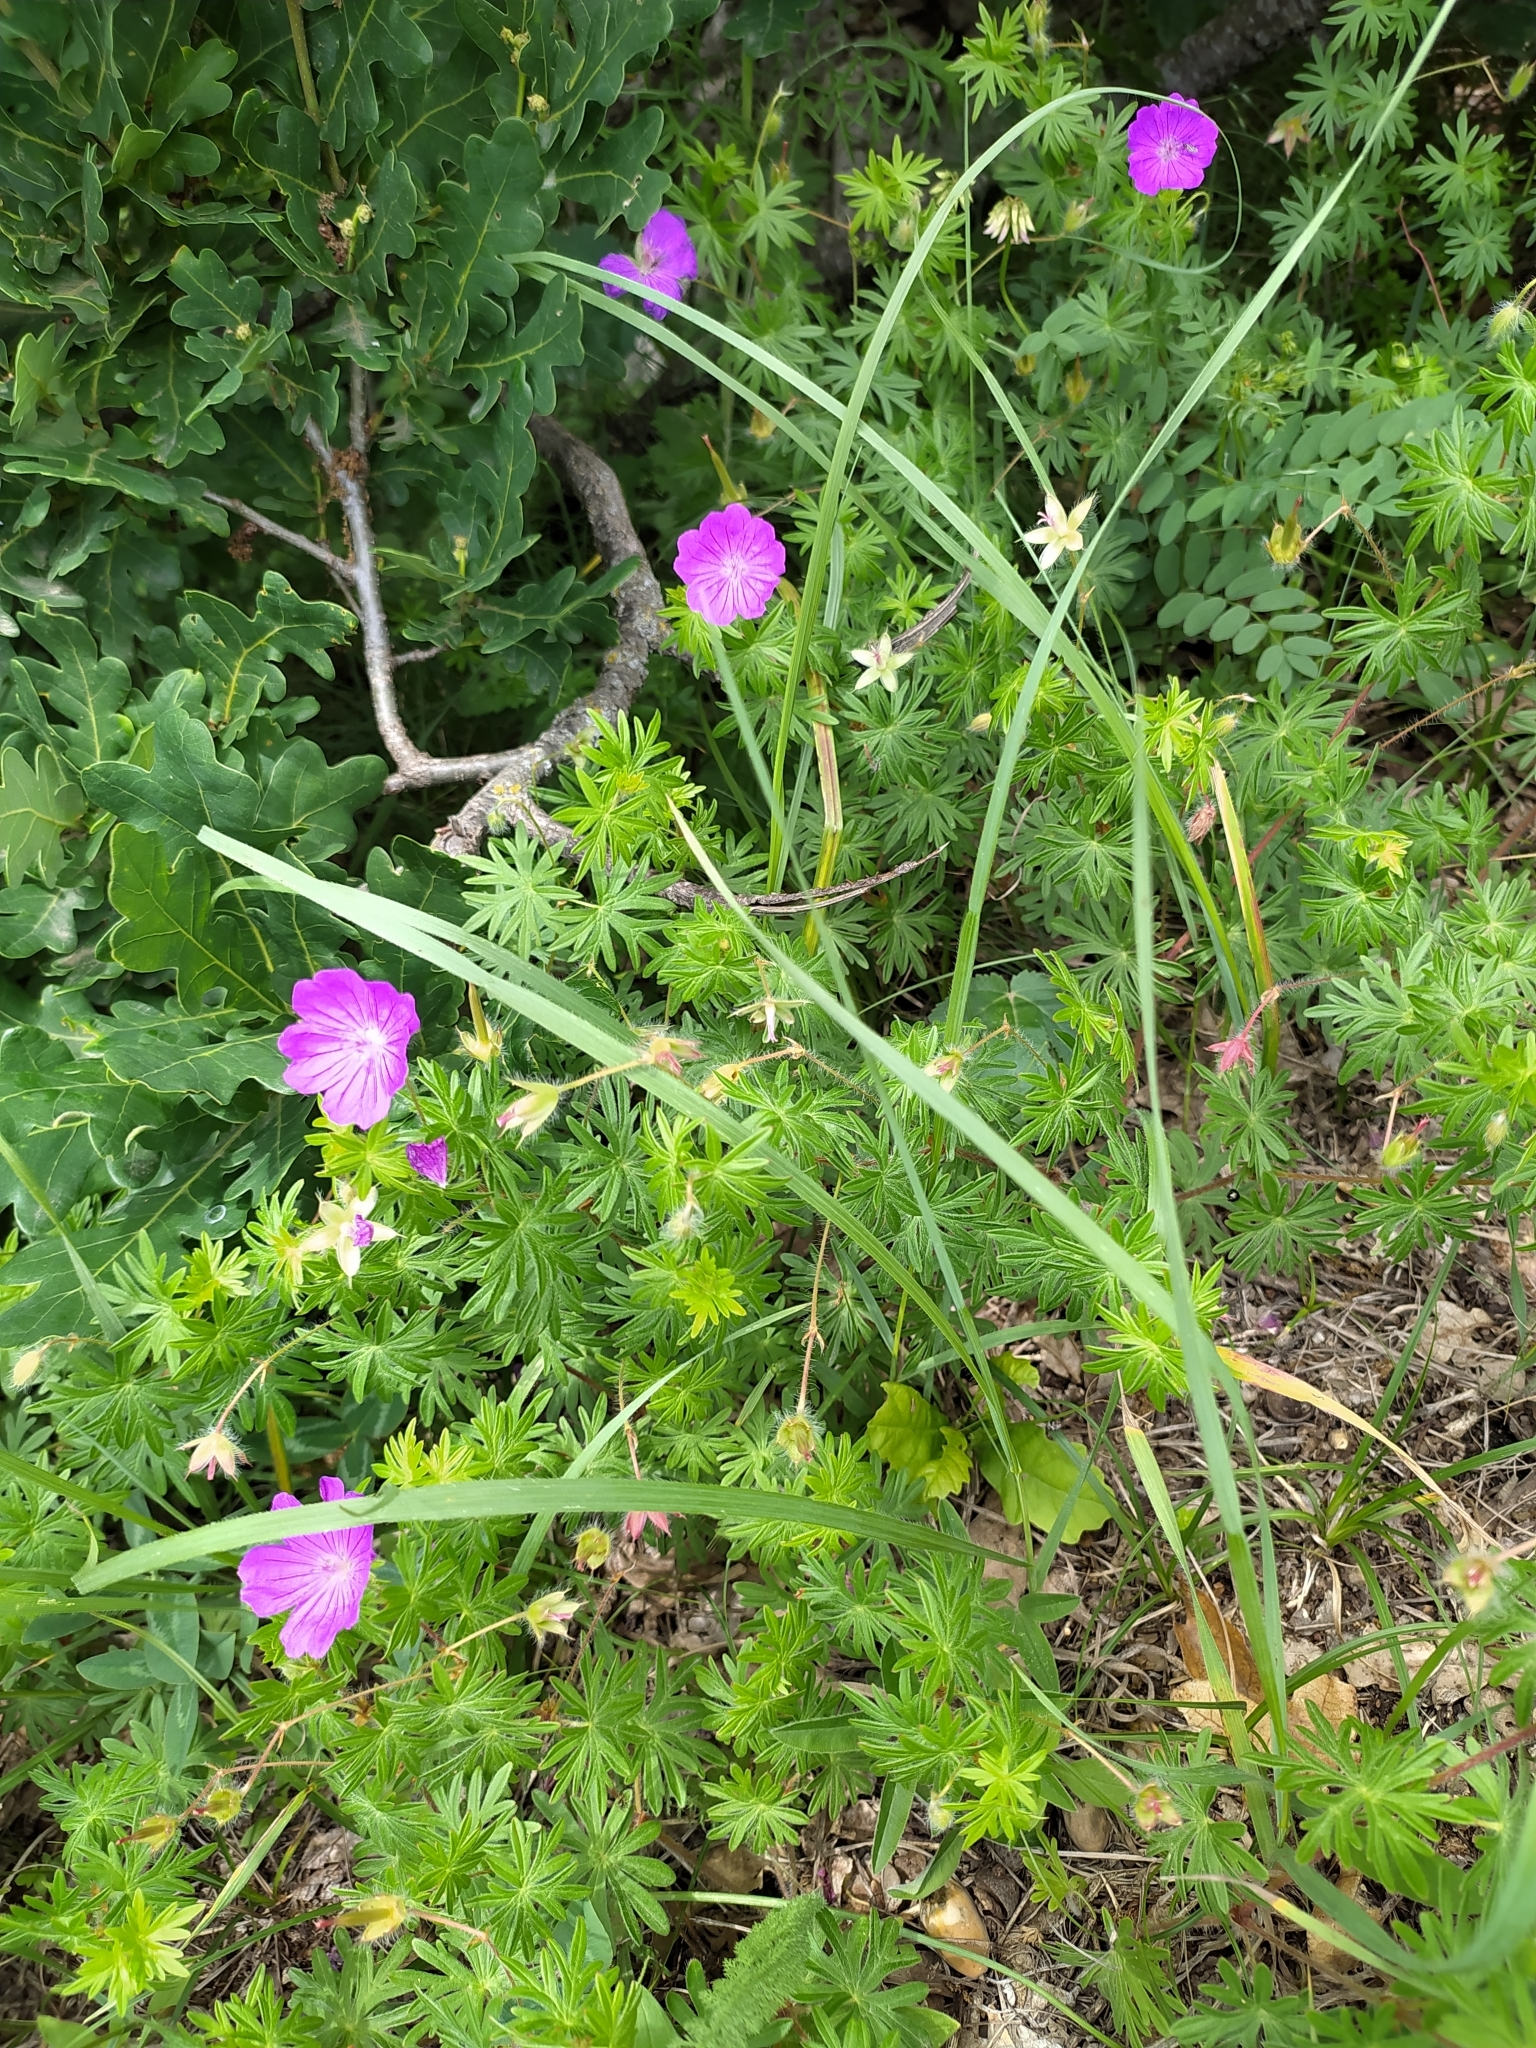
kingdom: Plantae
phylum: Tracheophyta
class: Magnoliopsida
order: Geraniales
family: Geraniaceae
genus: Geranium
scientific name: Geranium sanguineum
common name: Bloody crane's-bill
